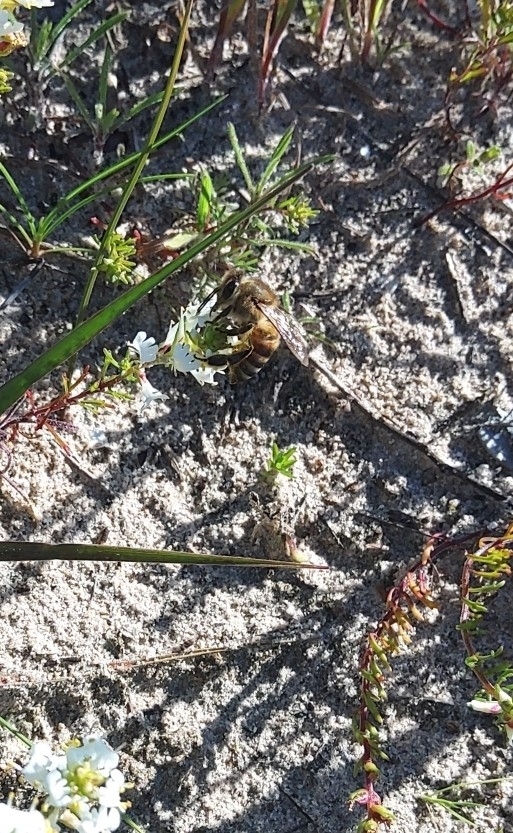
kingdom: Animalia
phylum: Arthropoda
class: Insecta
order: Hymenoptera
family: Apidae
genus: Apis
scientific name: Apis mellifera
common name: Honey bee
